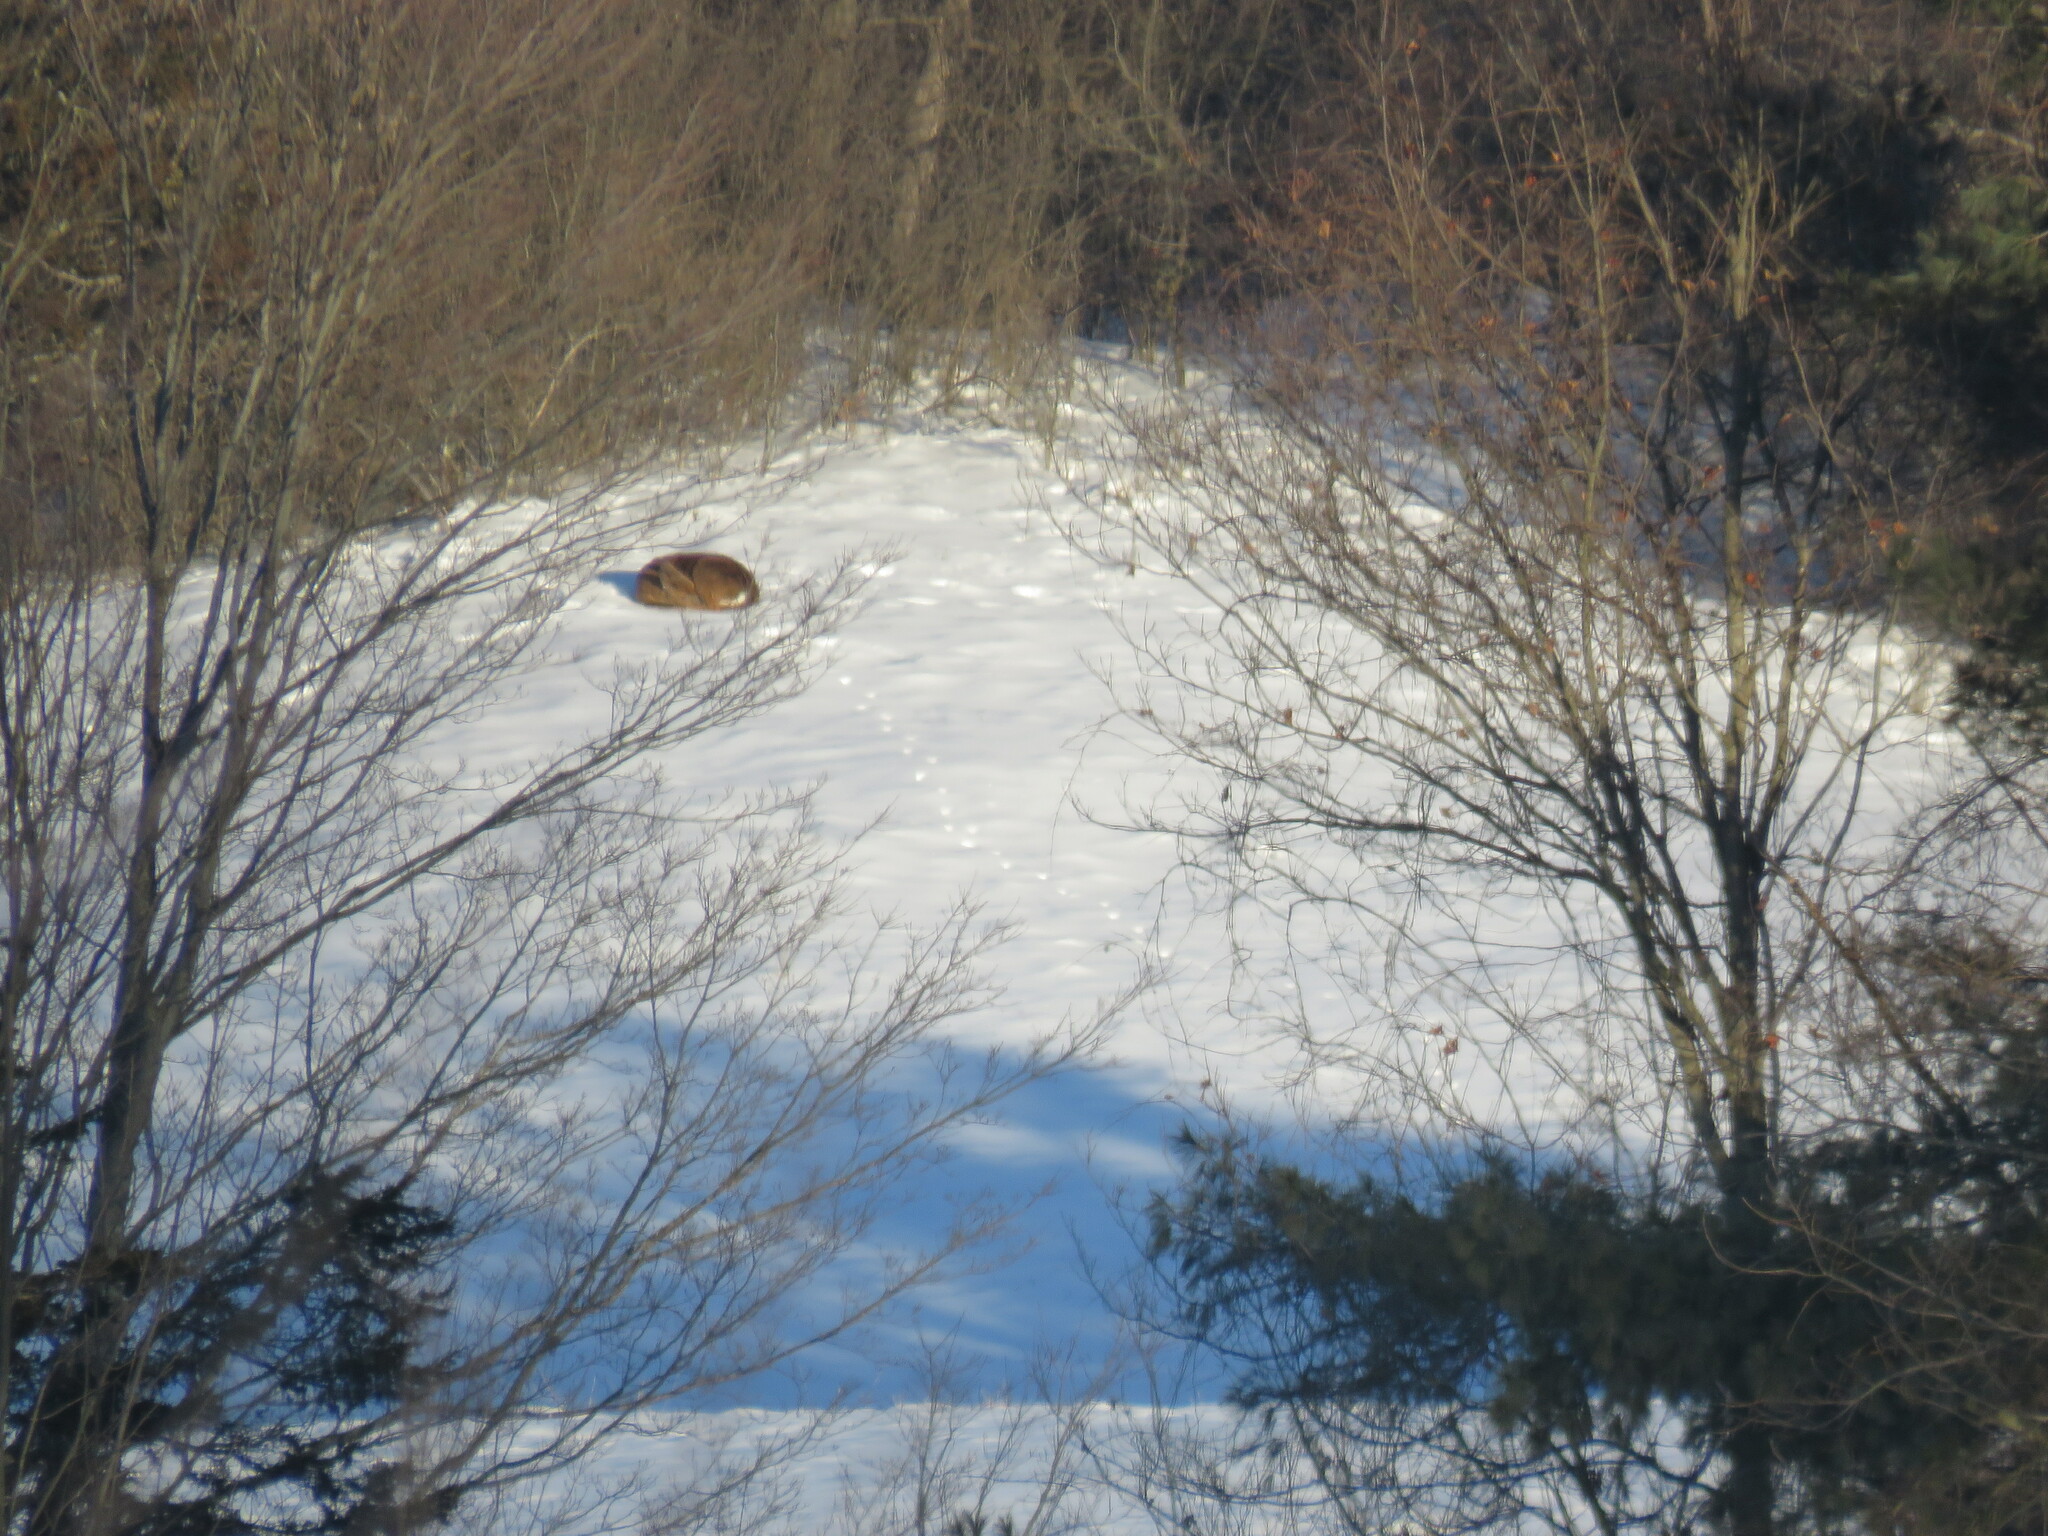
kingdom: Animalia
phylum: Chordata
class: Mammalia
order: Artiodactyla
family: Cervidae
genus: Odocoileus
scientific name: Odocoileus virginianus
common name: White-tailed deer
